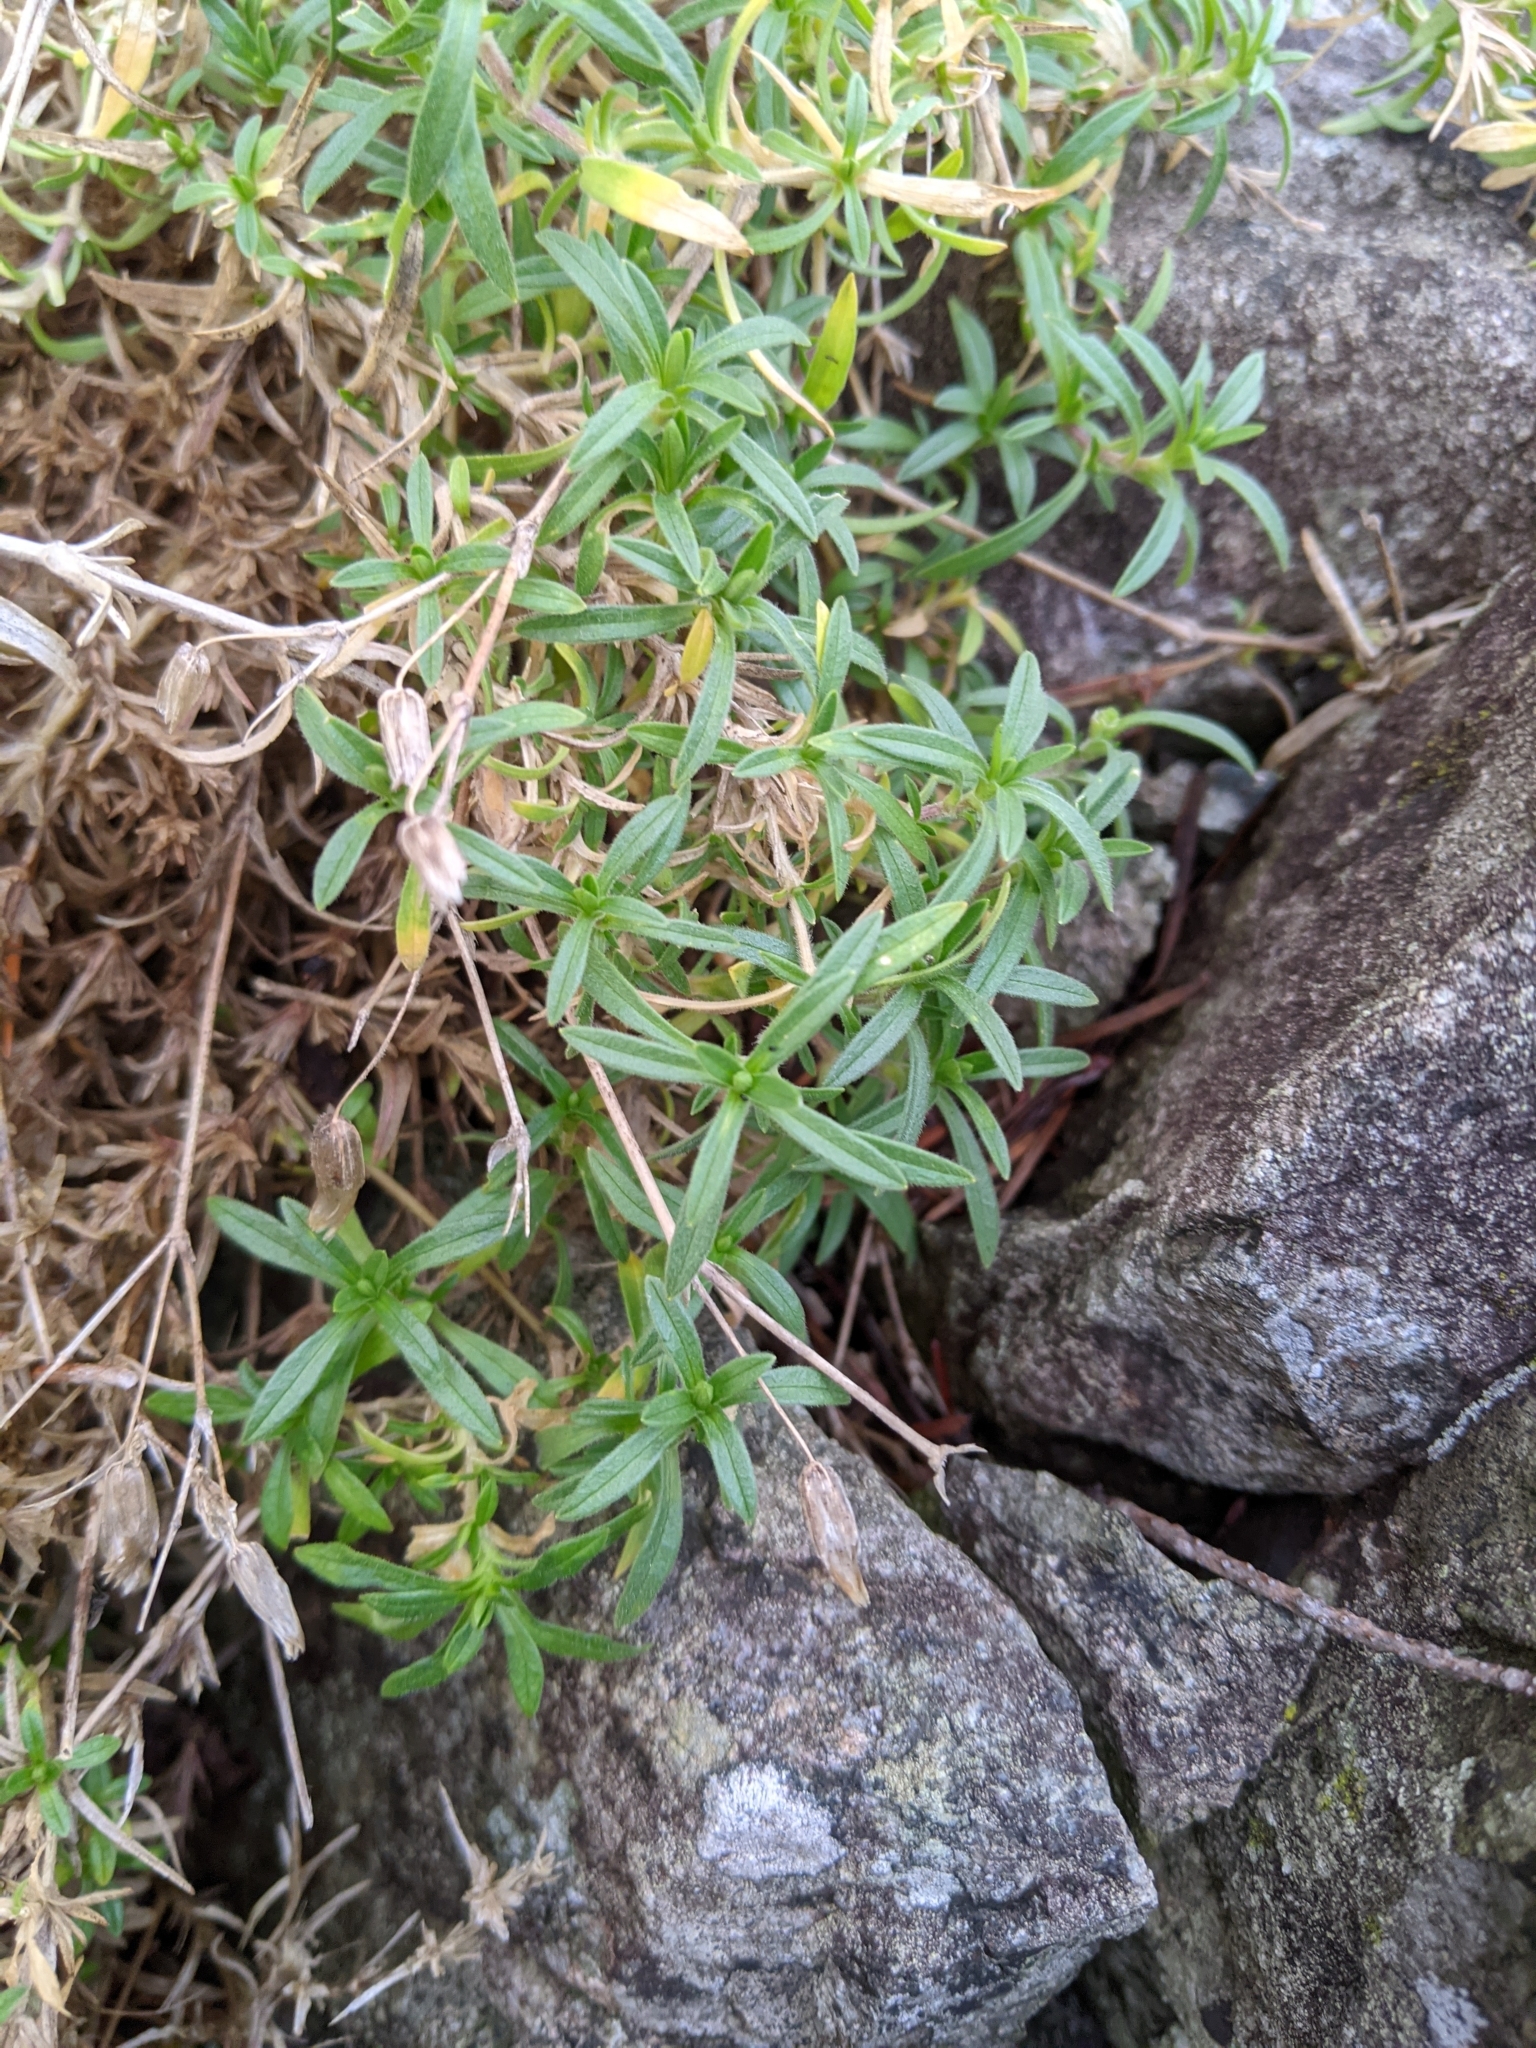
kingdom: Plantae
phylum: Tracheophyta
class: Magnoliopsida
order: Caryophyllales
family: Caryophyllaceae
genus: Cerastium
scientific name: Cerastium arvense
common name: Field mouse-ear
